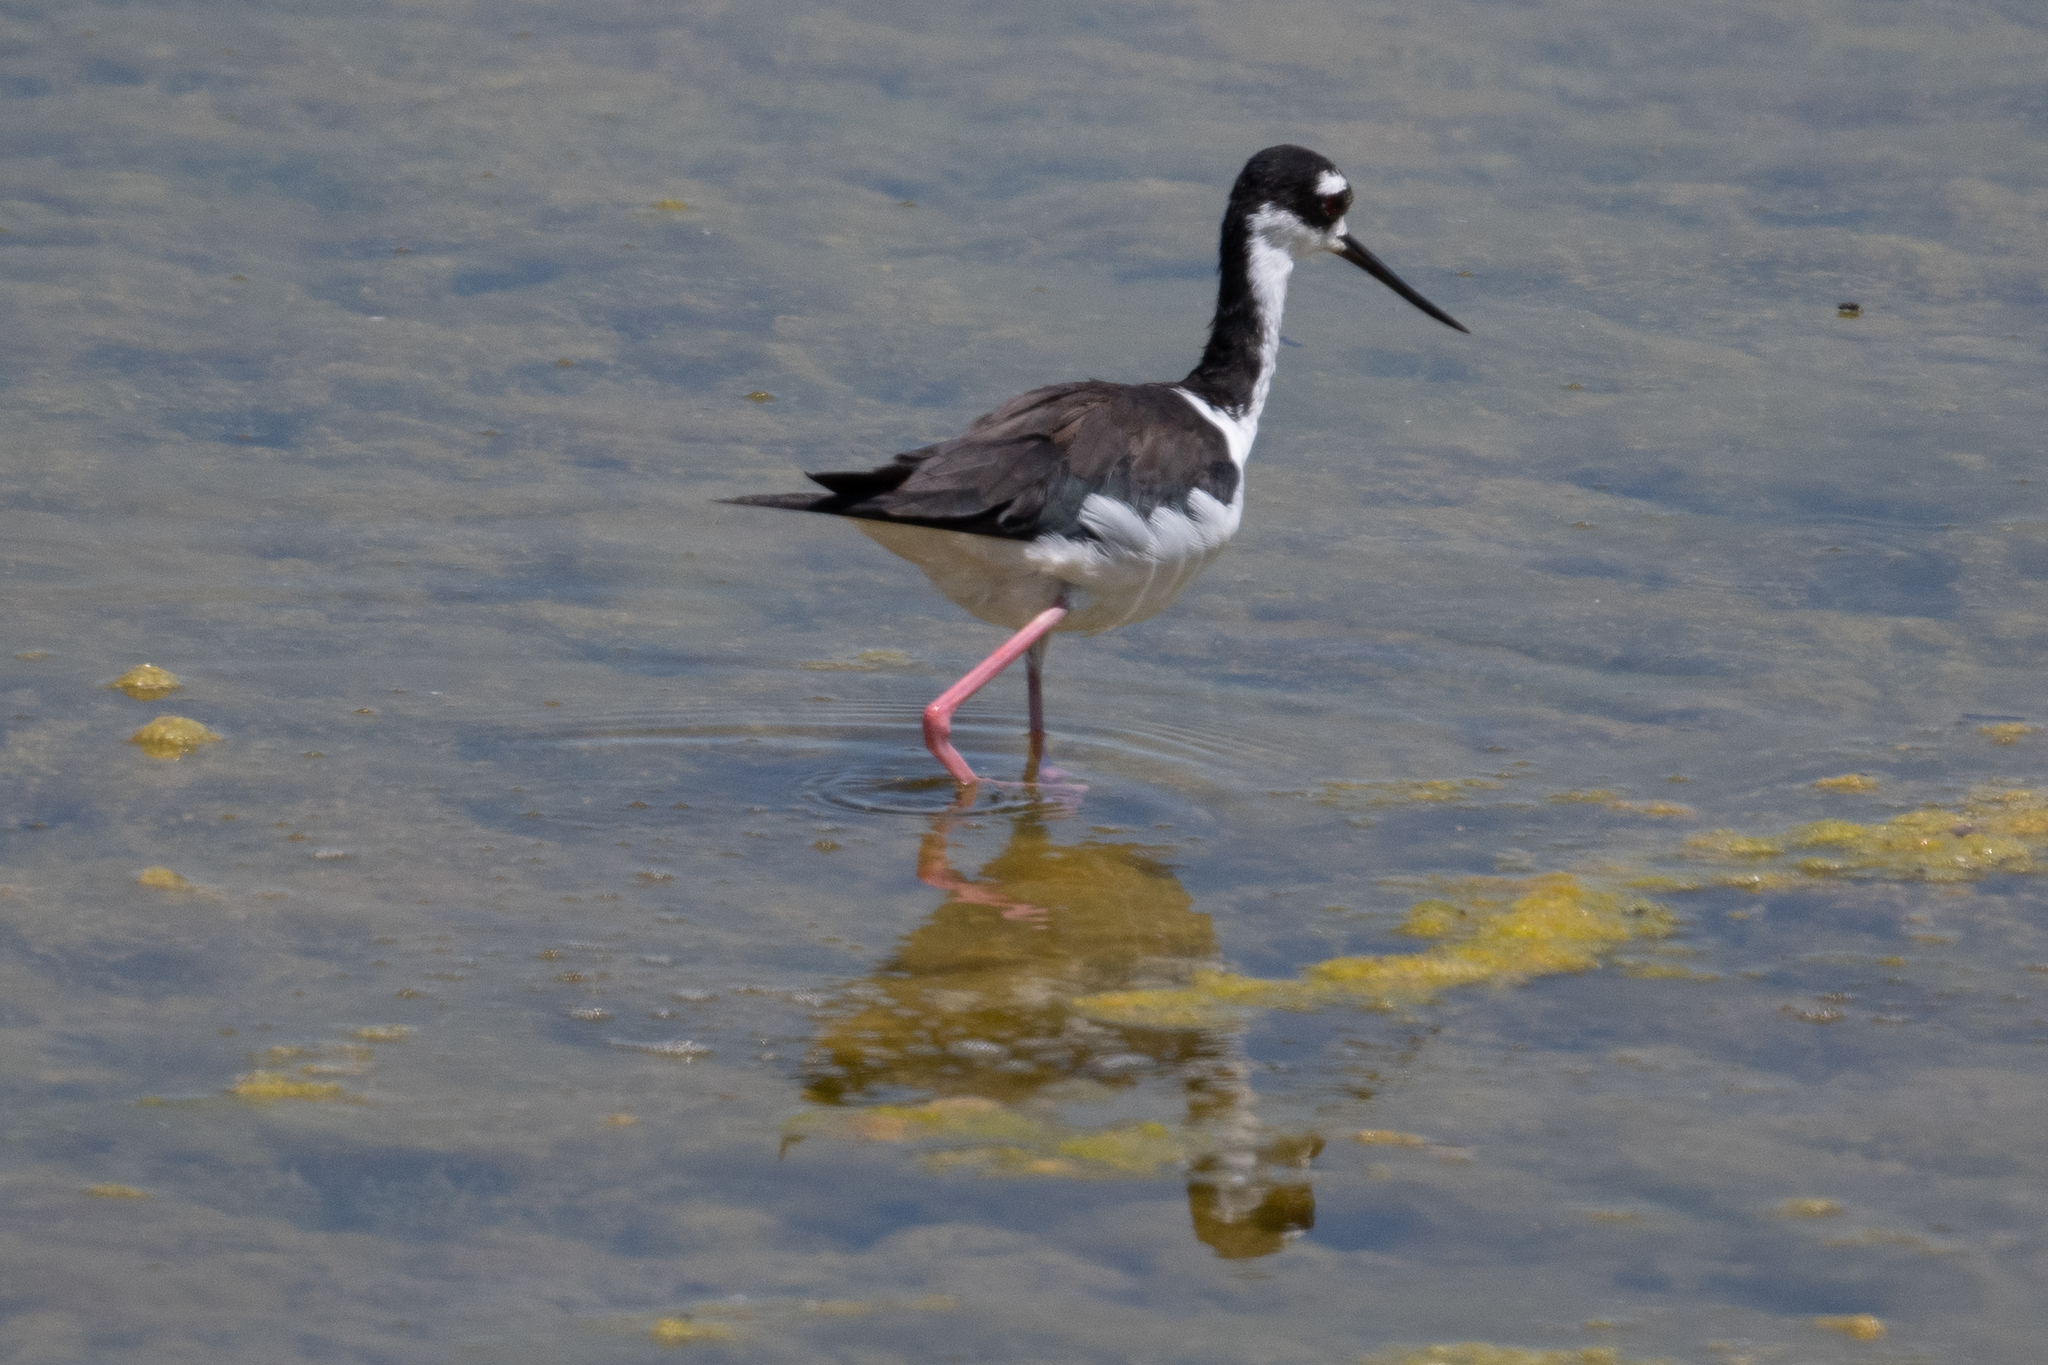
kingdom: Animalia
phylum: Chordata
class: Aves
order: Charadriiformes
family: Recurvirostridae
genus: Himantopus
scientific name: Himantopus mexicanus
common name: Black-necked stilt
